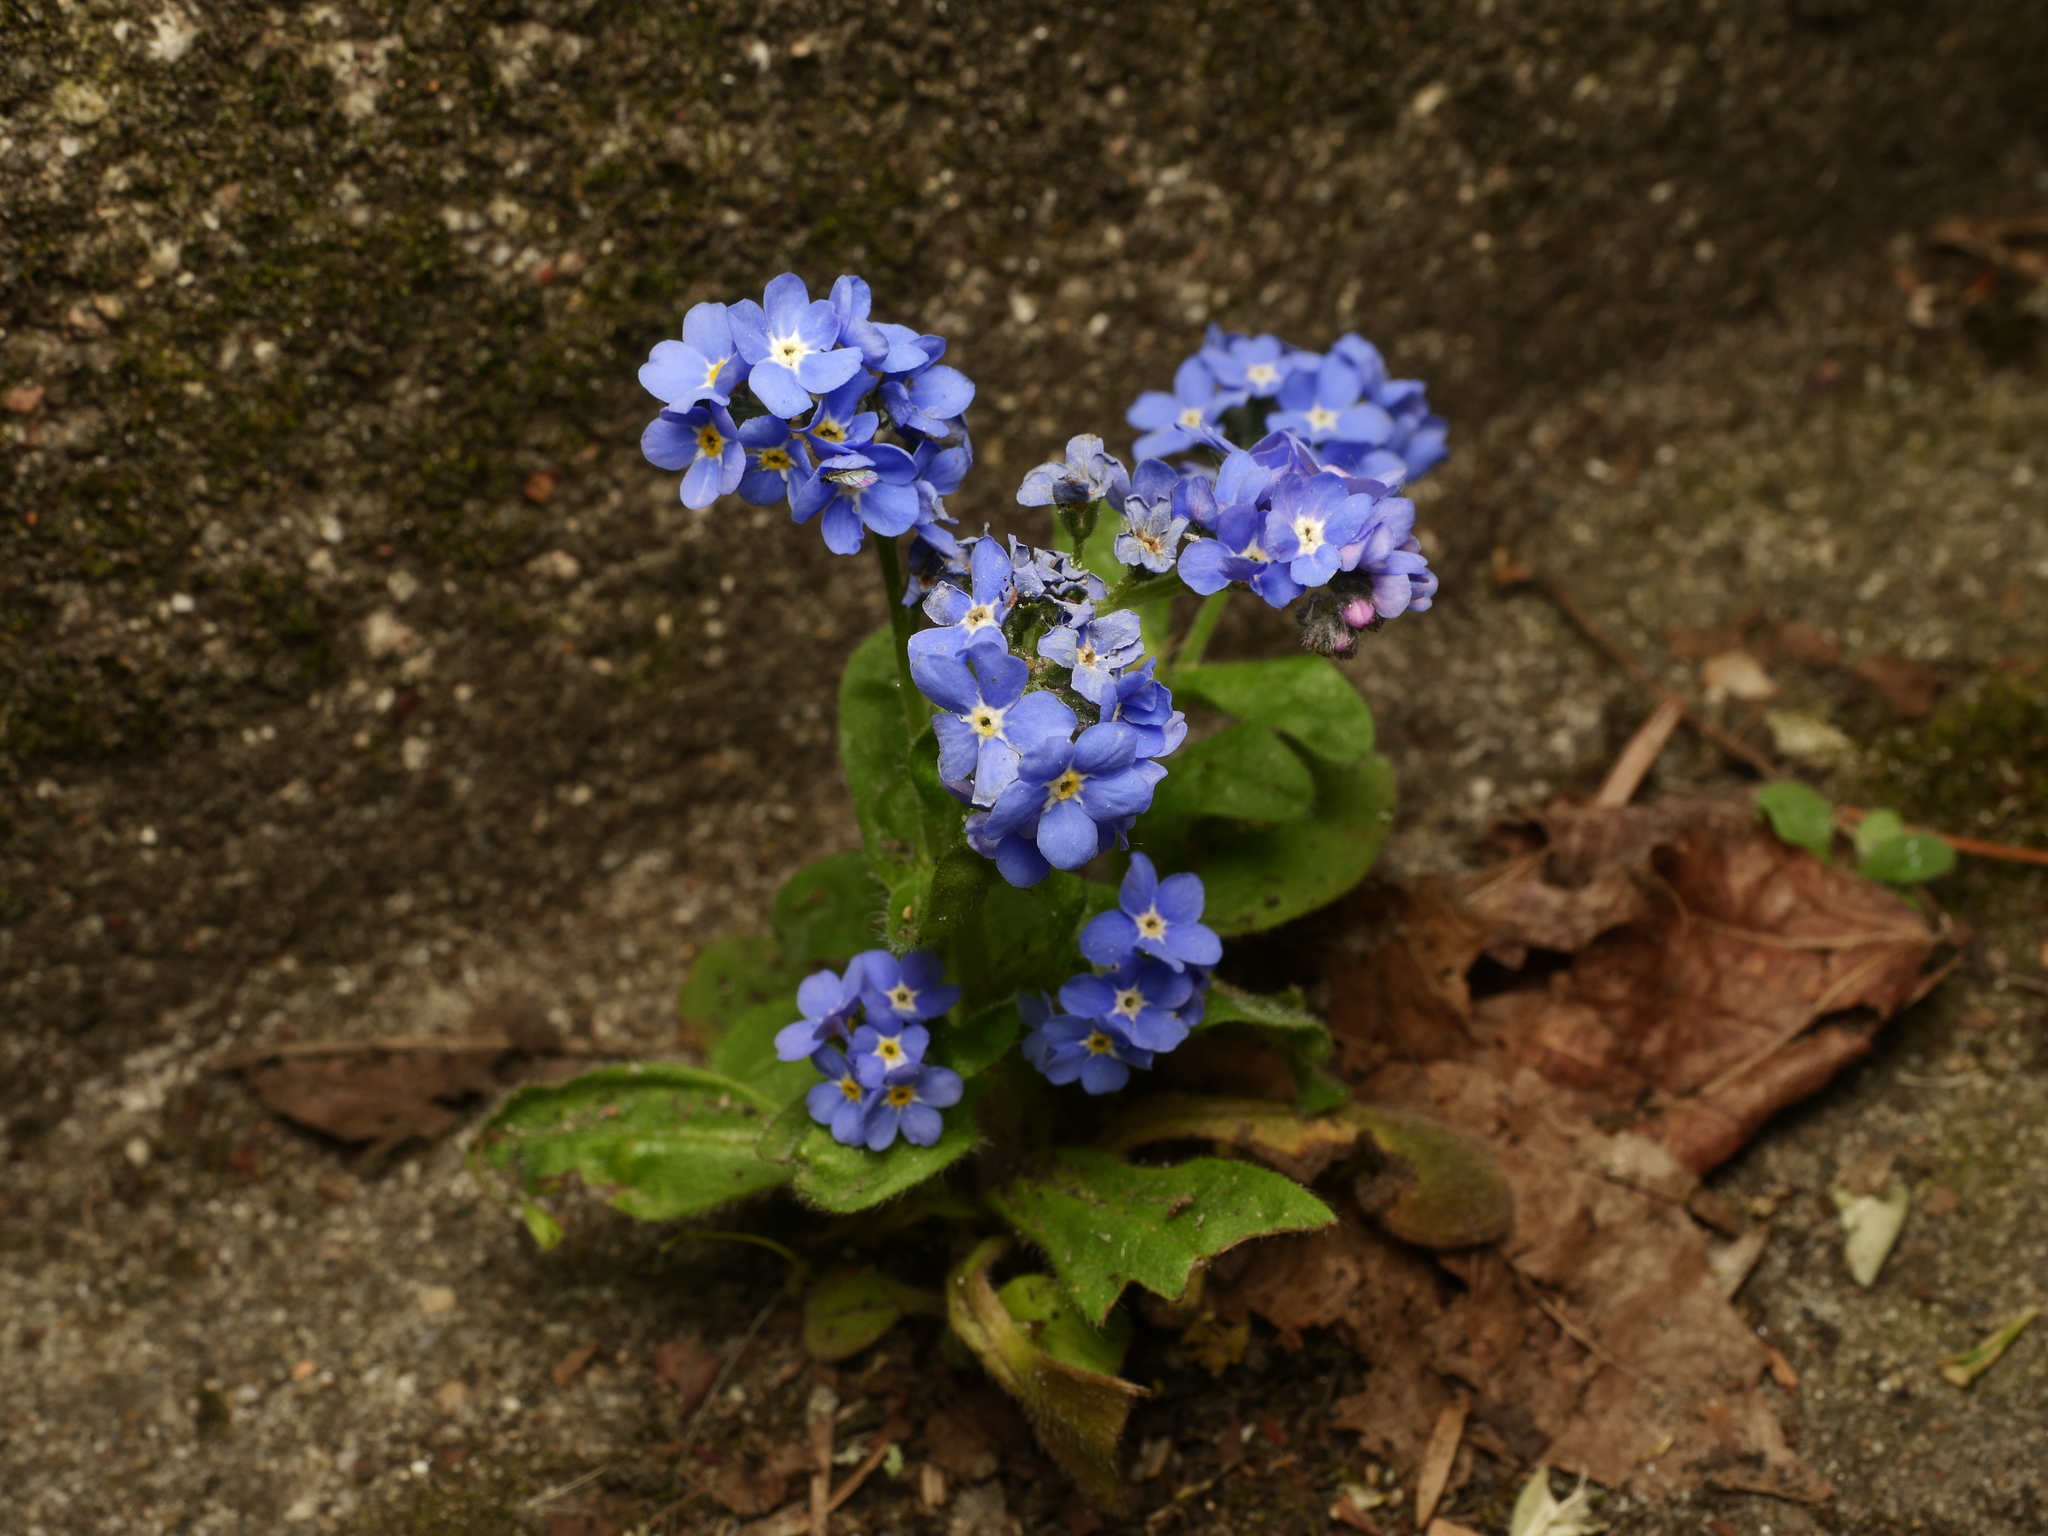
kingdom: Plantae
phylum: Tracheophyta
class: Magnoliopsida
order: Boraginales
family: Boraginaceae
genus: Myosotis
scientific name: Myosotis sylvatica
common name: Wood forget-me-not
